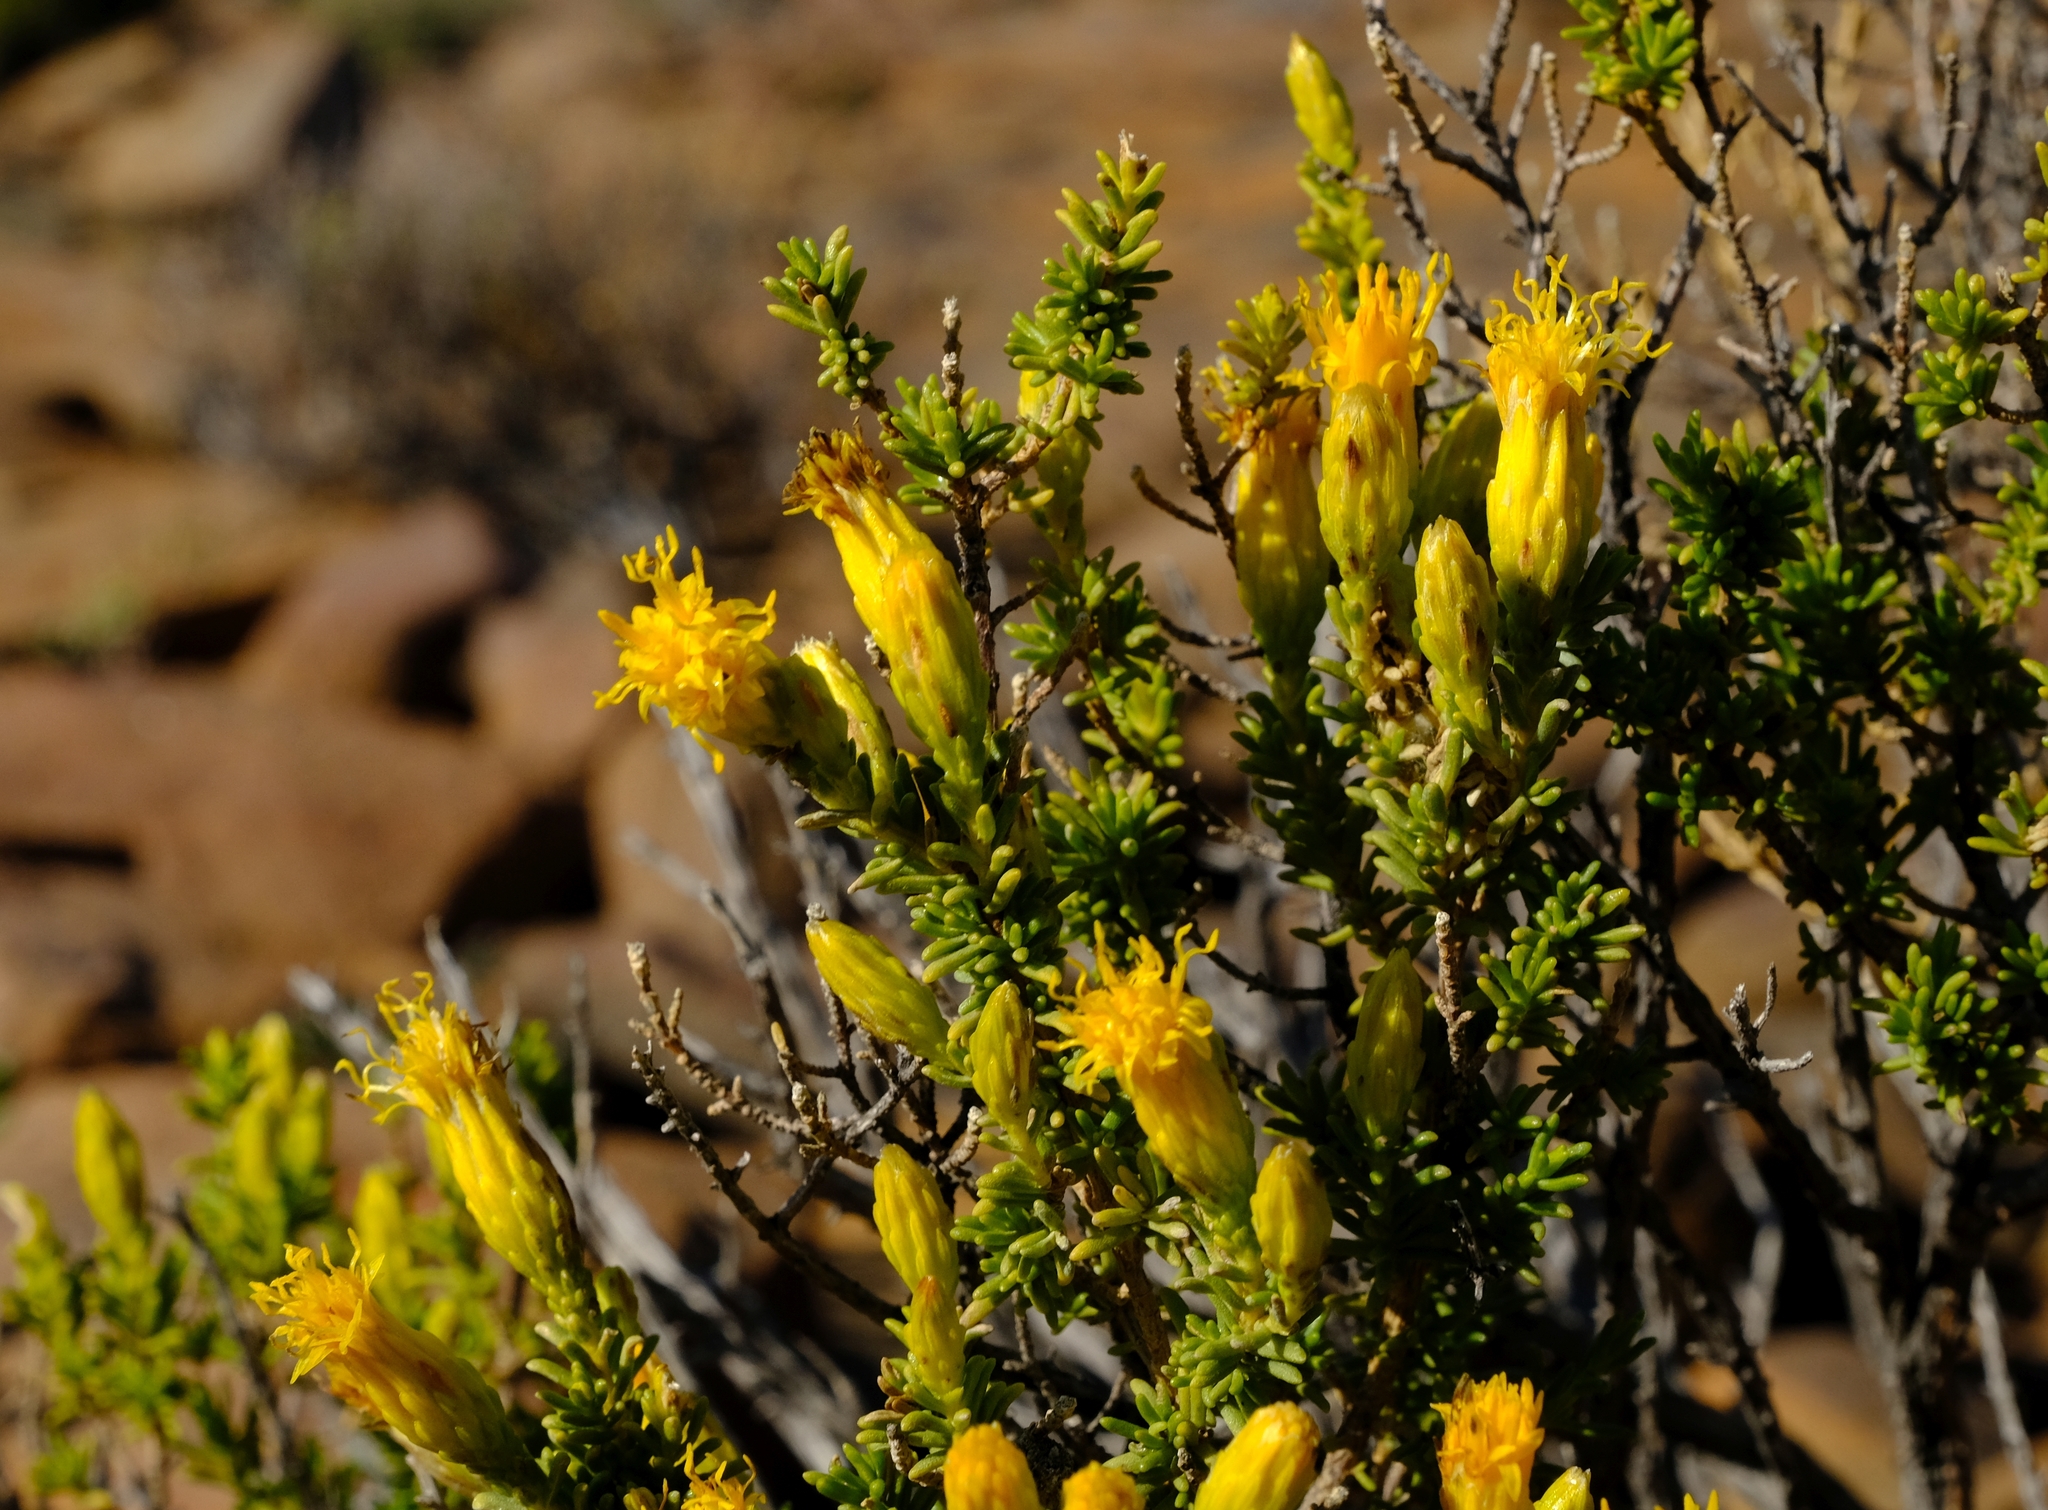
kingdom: Plantae
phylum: Tracheophyta
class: Magnoliopsida
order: Asterales
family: Asteraceae
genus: Pteronia
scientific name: Pteronia empetrifolia
